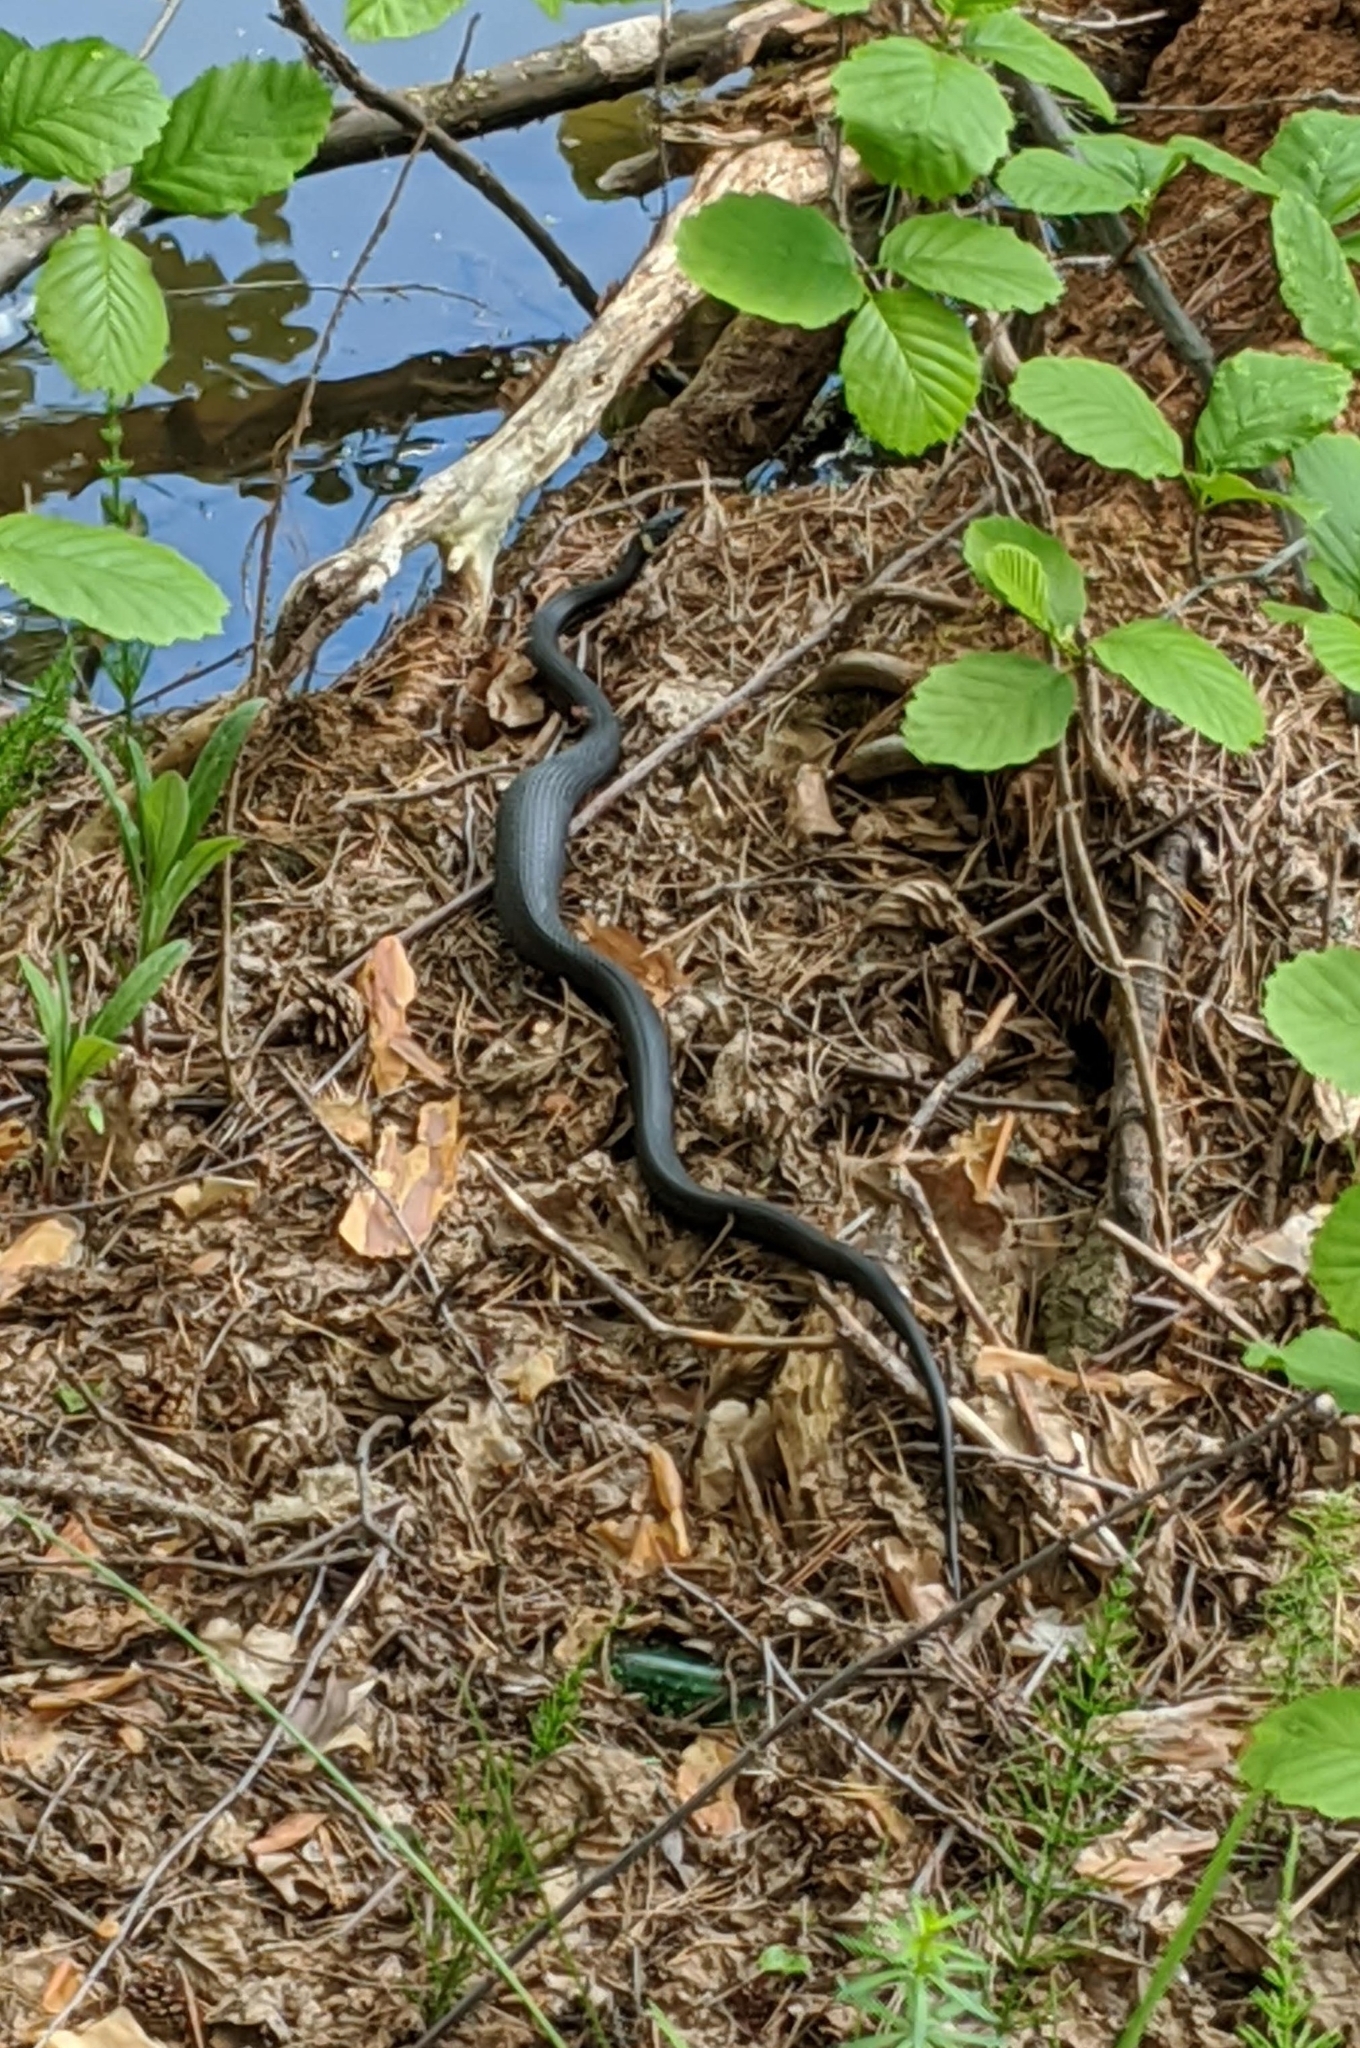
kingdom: Animalia
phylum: Chordata
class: Squamata
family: Colubridae
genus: Natrix
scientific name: Natrix natrix
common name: Grass snake
